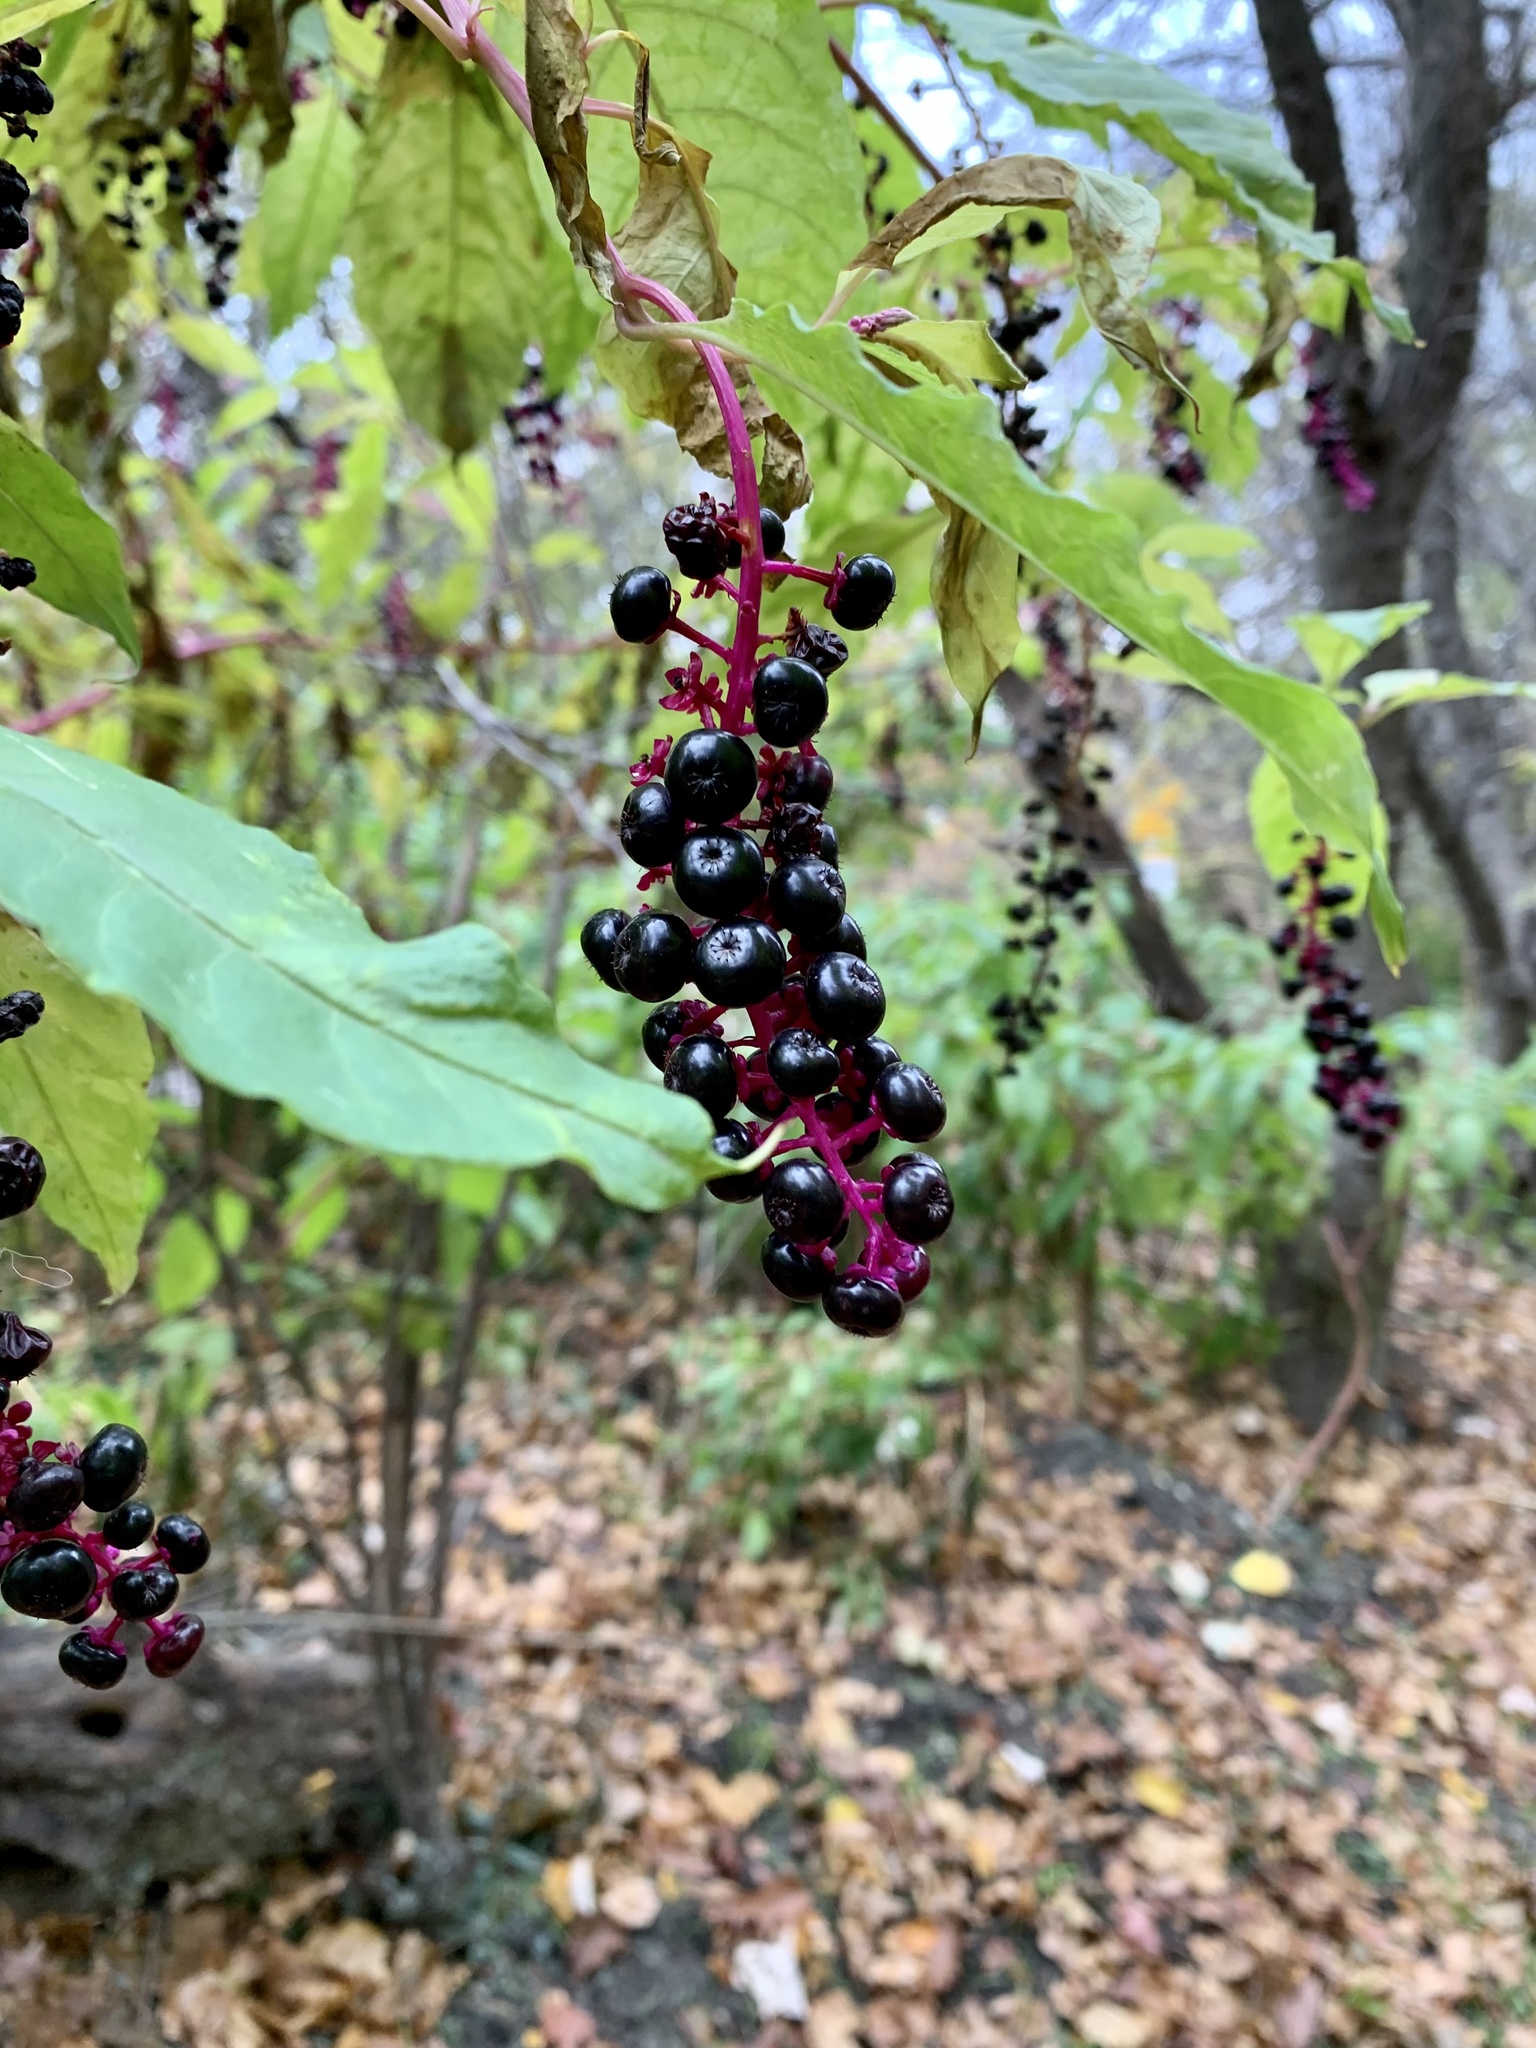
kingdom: Plantae
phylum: Tracheophyta
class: Magnoliopsida
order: Caryophyllales
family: Phytolaccaceae
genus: Phytolacca
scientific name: Phytolacca americana
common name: American pokeweed
